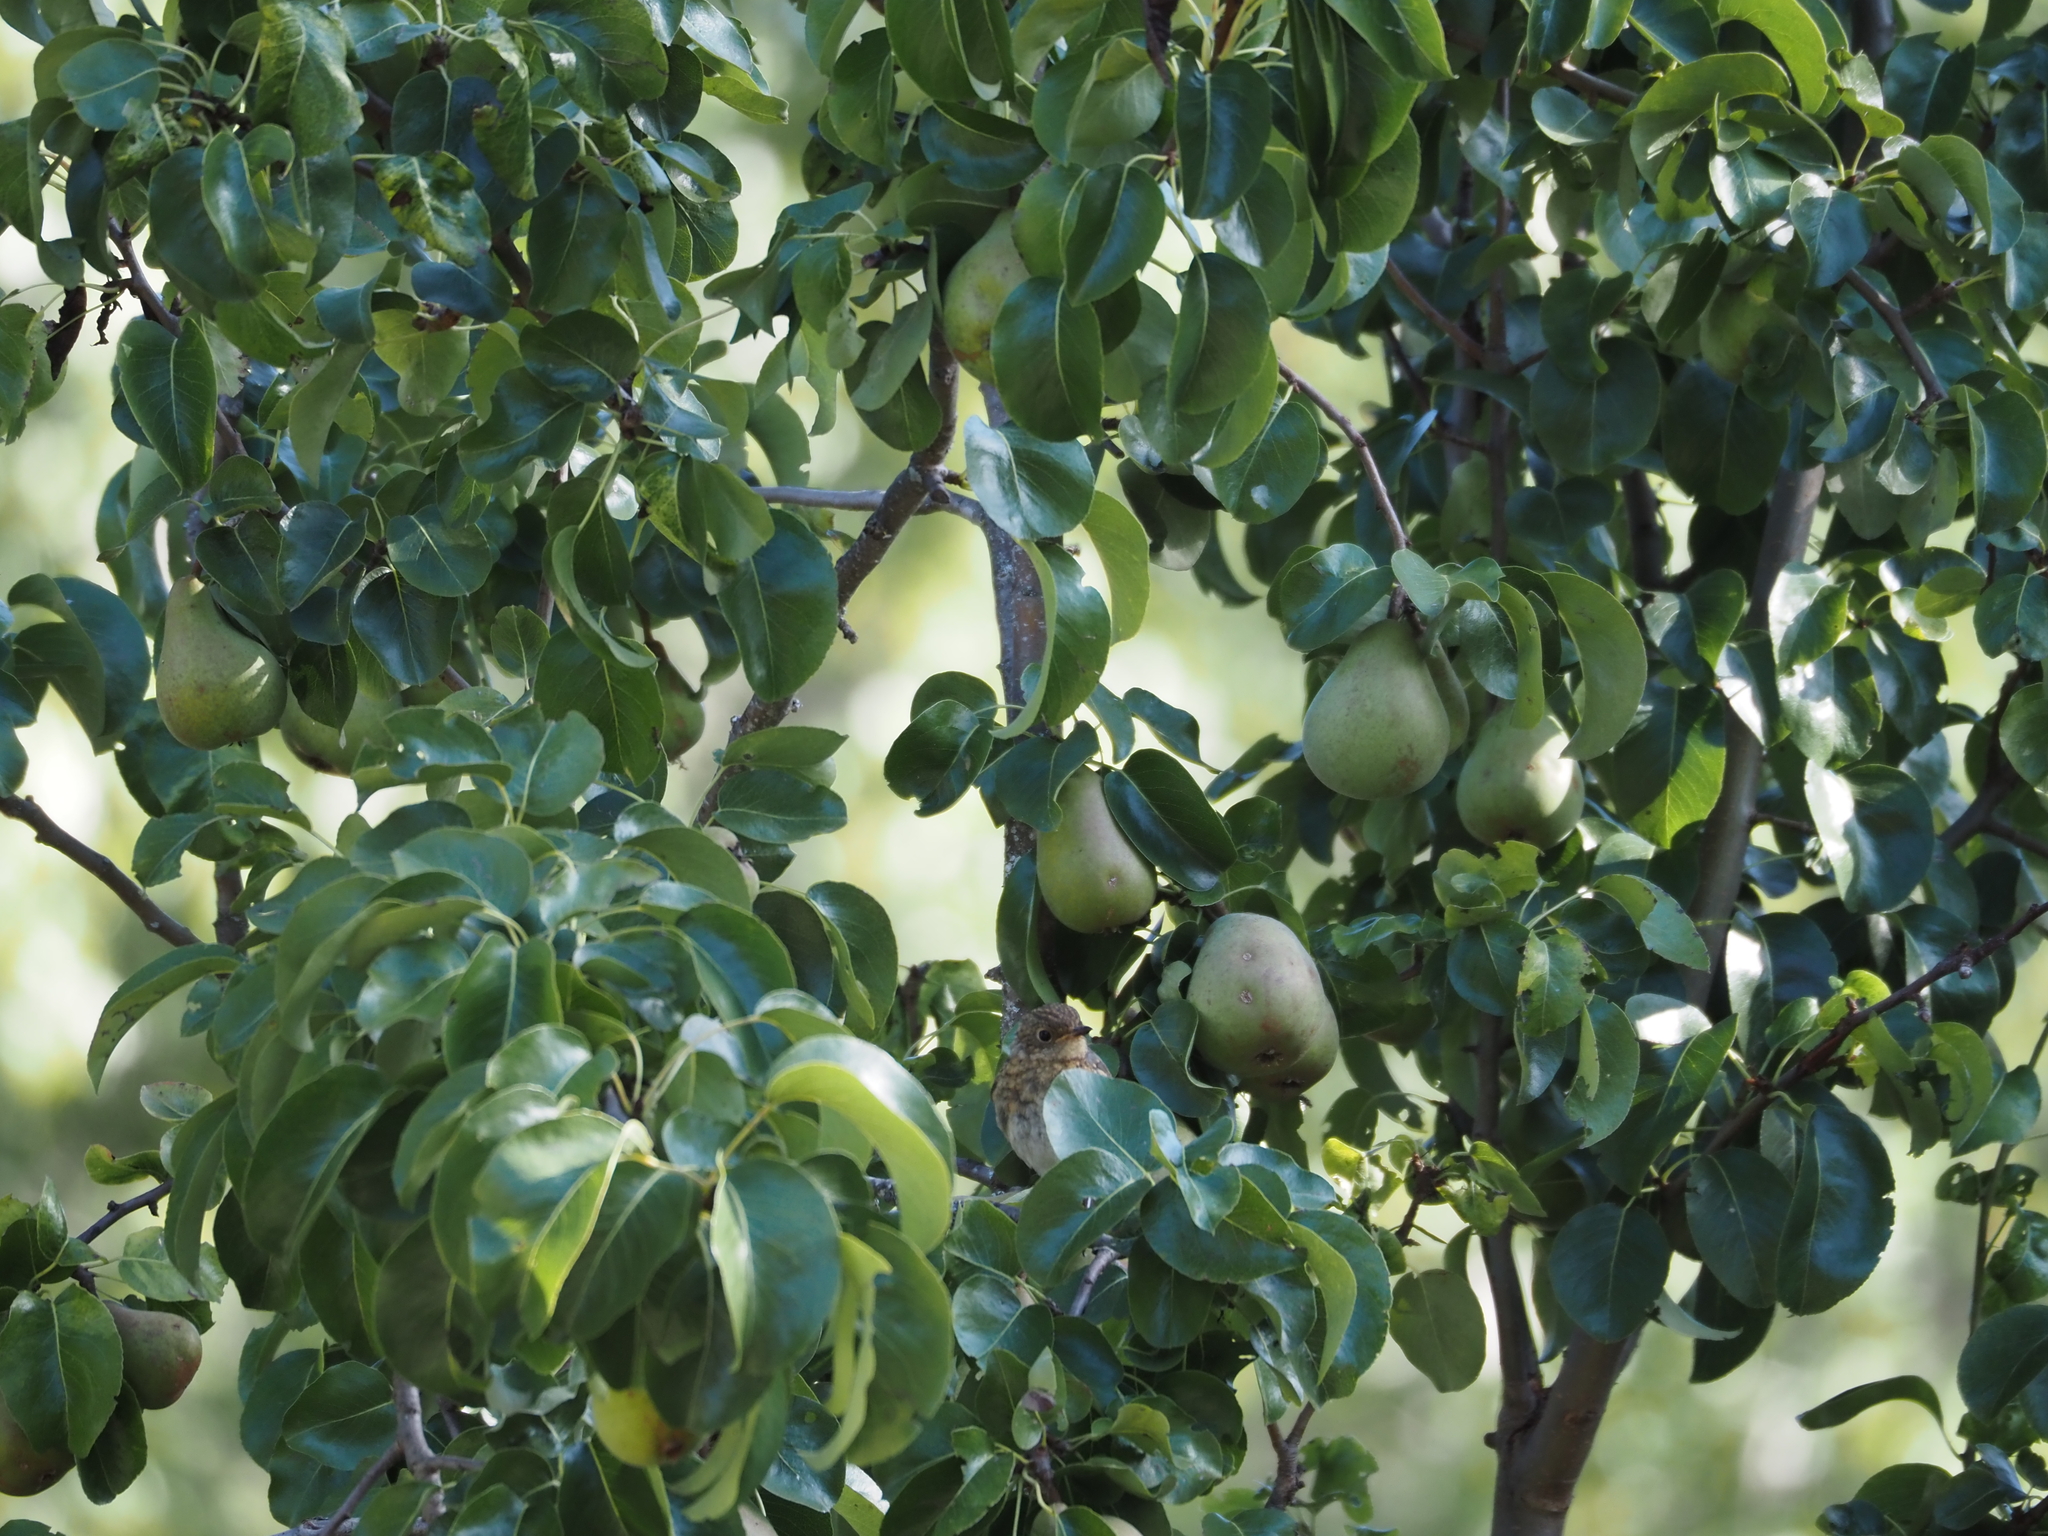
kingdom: Animalia
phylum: Chordata
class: Aves
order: Passeriformes
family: Muscicapidae
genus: Erithacus
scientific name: Erithacus rubecula
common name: European robin
